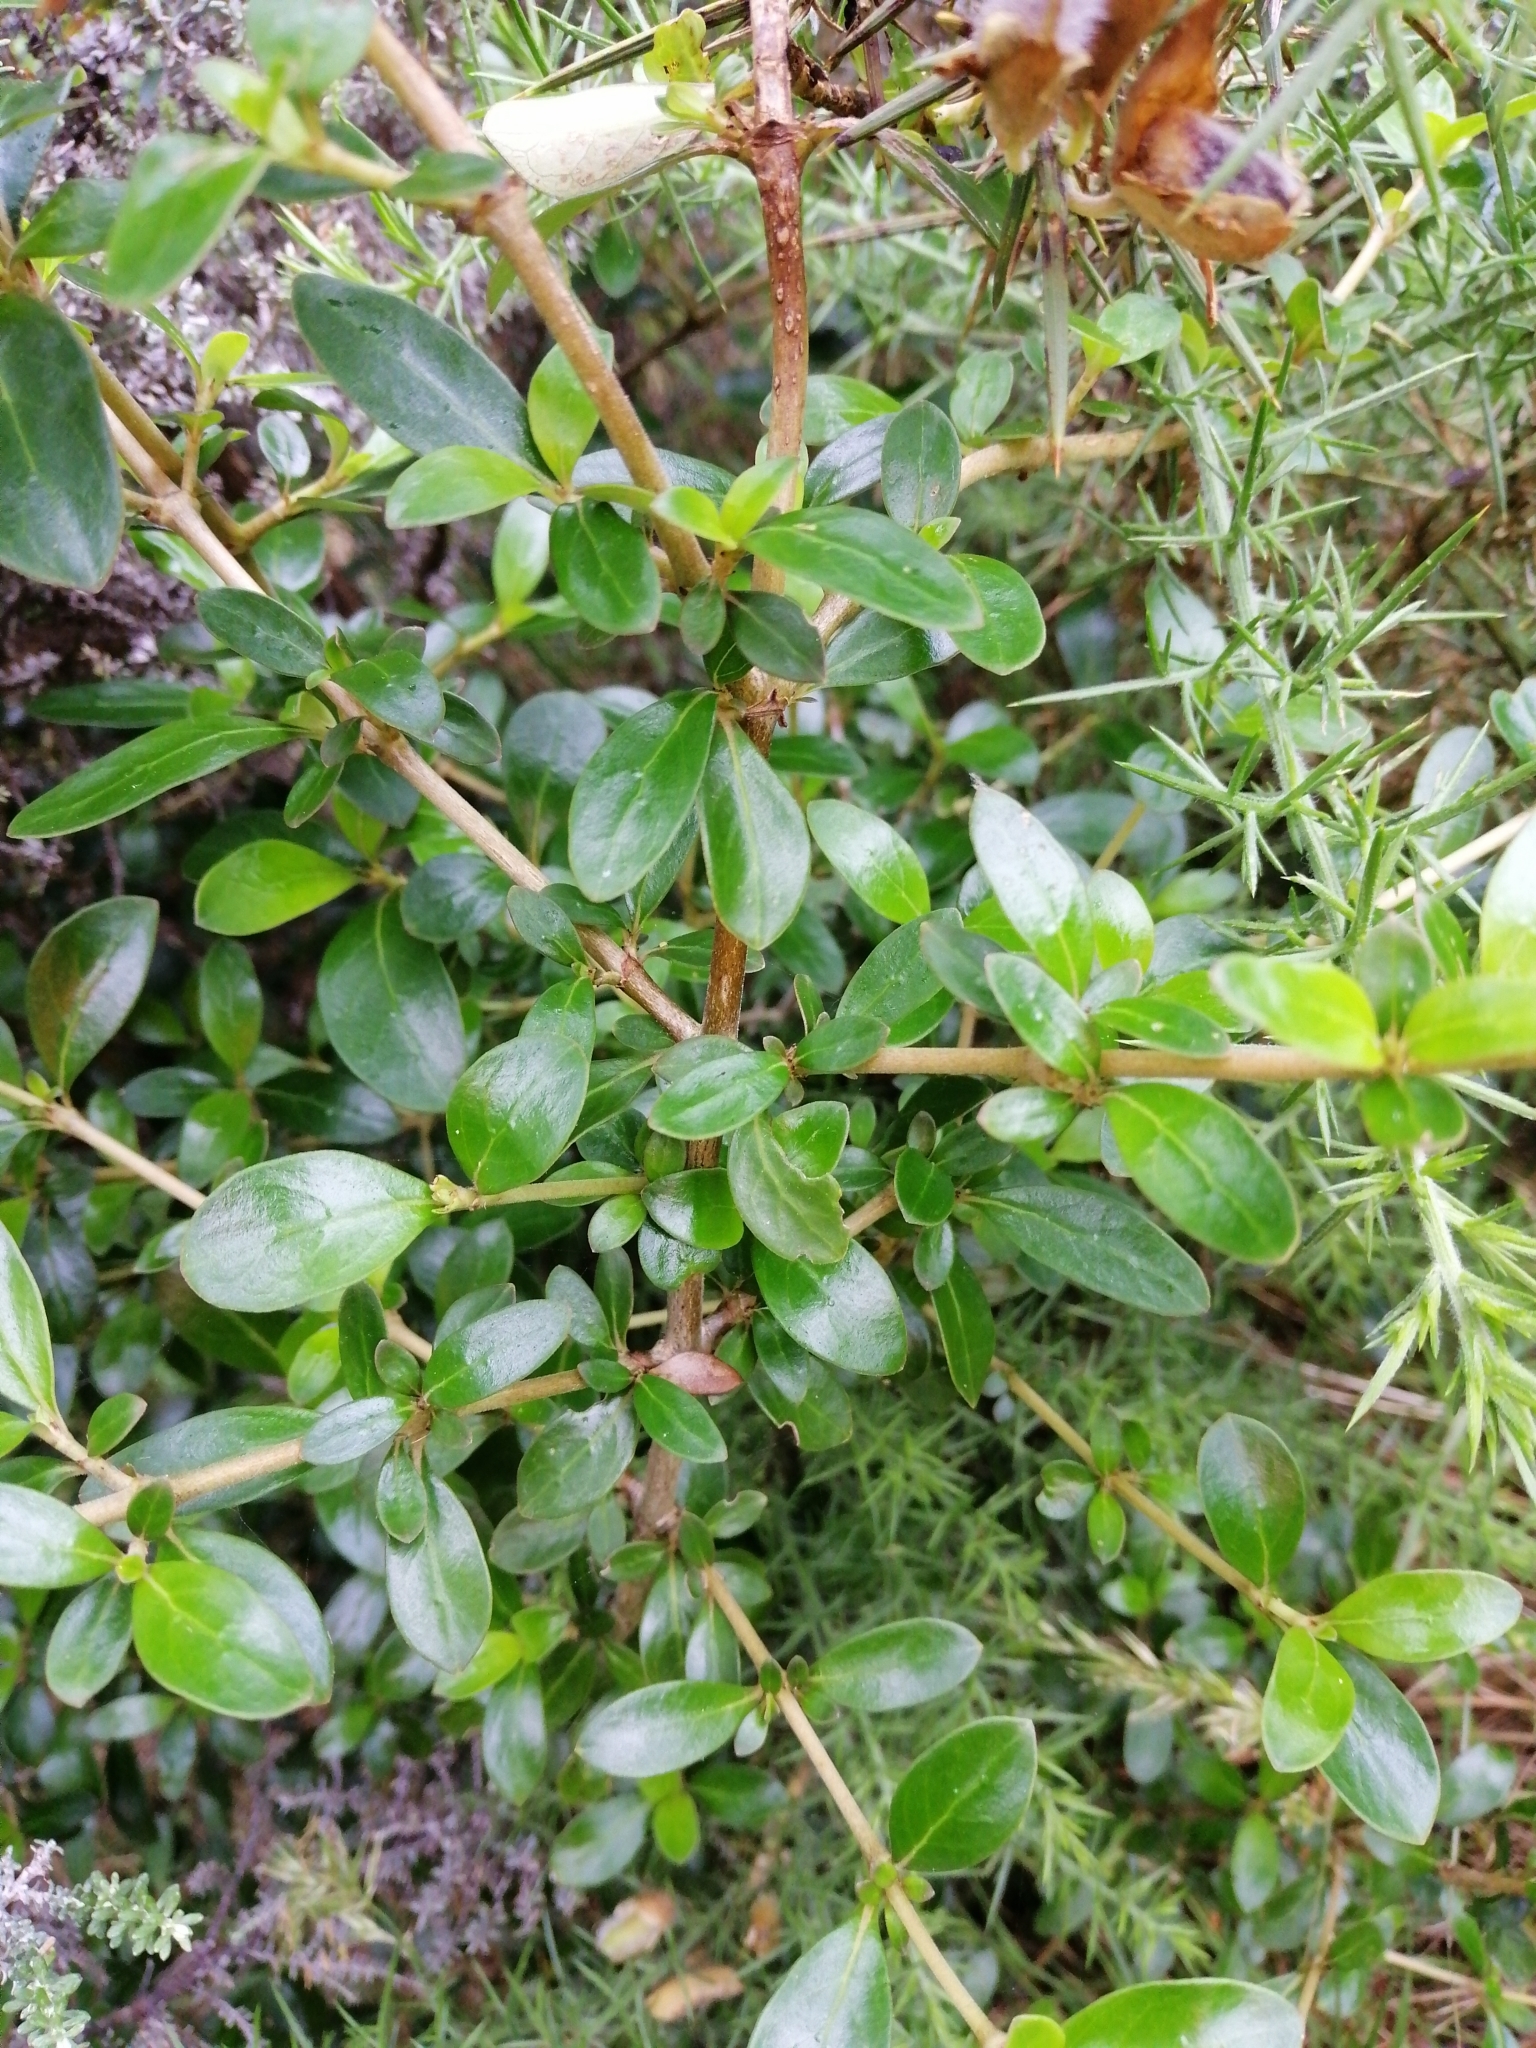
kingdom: Plantae
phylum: Tracheophyta
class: Magnoliopsida
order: Gentianales
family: Rubiaceae
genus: Coprosma
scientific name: Coprosma cunninghamii
